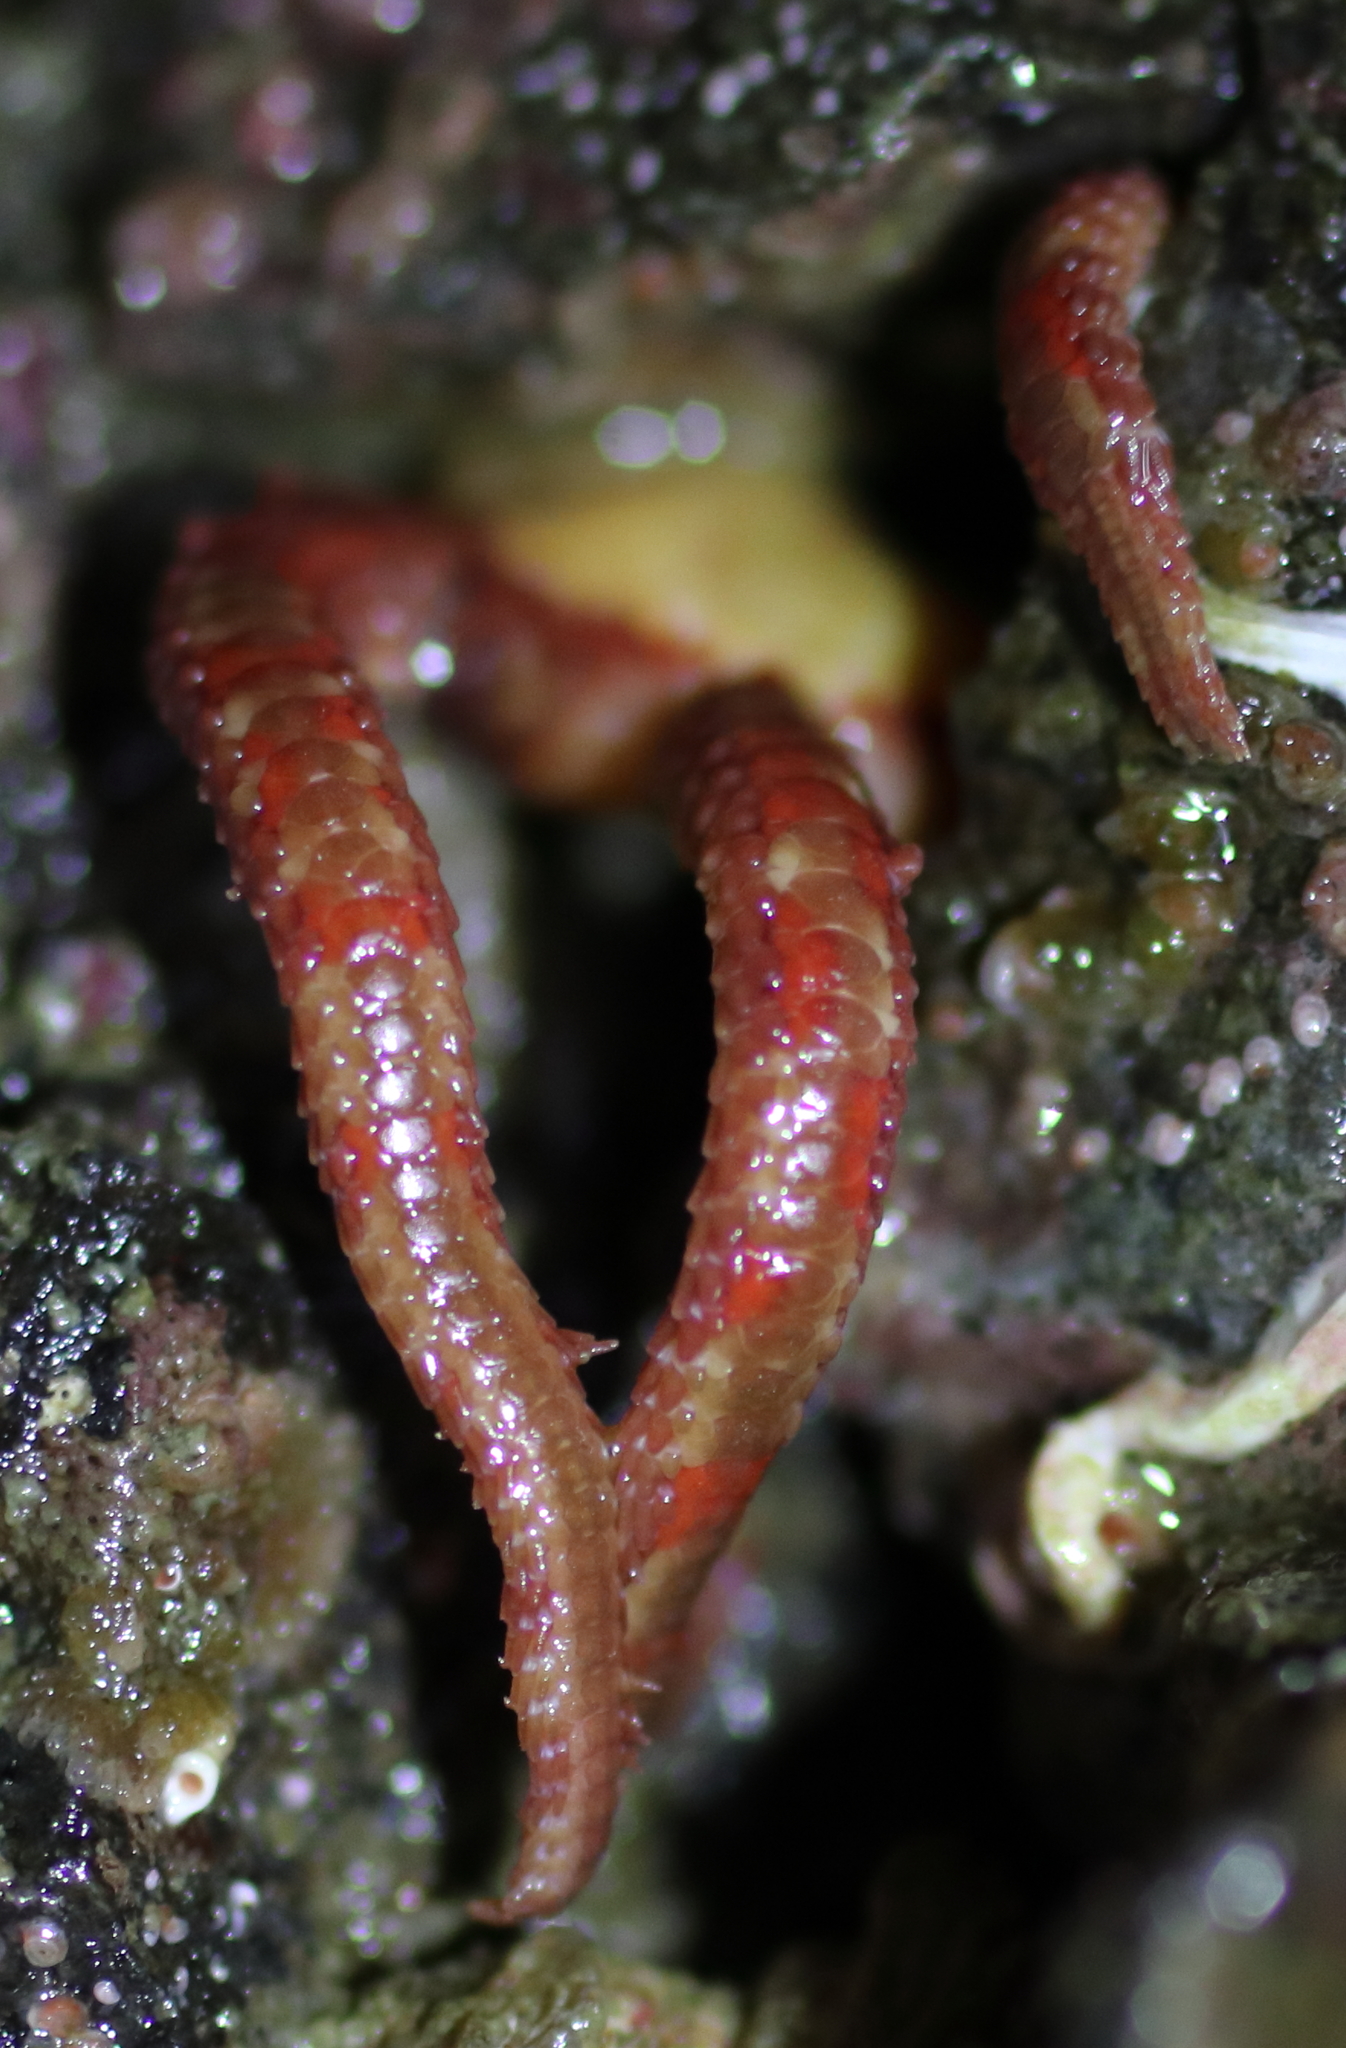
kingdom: Animalia
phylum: Echinodermata
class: Ophiuroidea
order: Amphilepidida
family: Ophiopholidae
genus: Ophiopholis
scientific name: Ophiopholis kennerlyi
